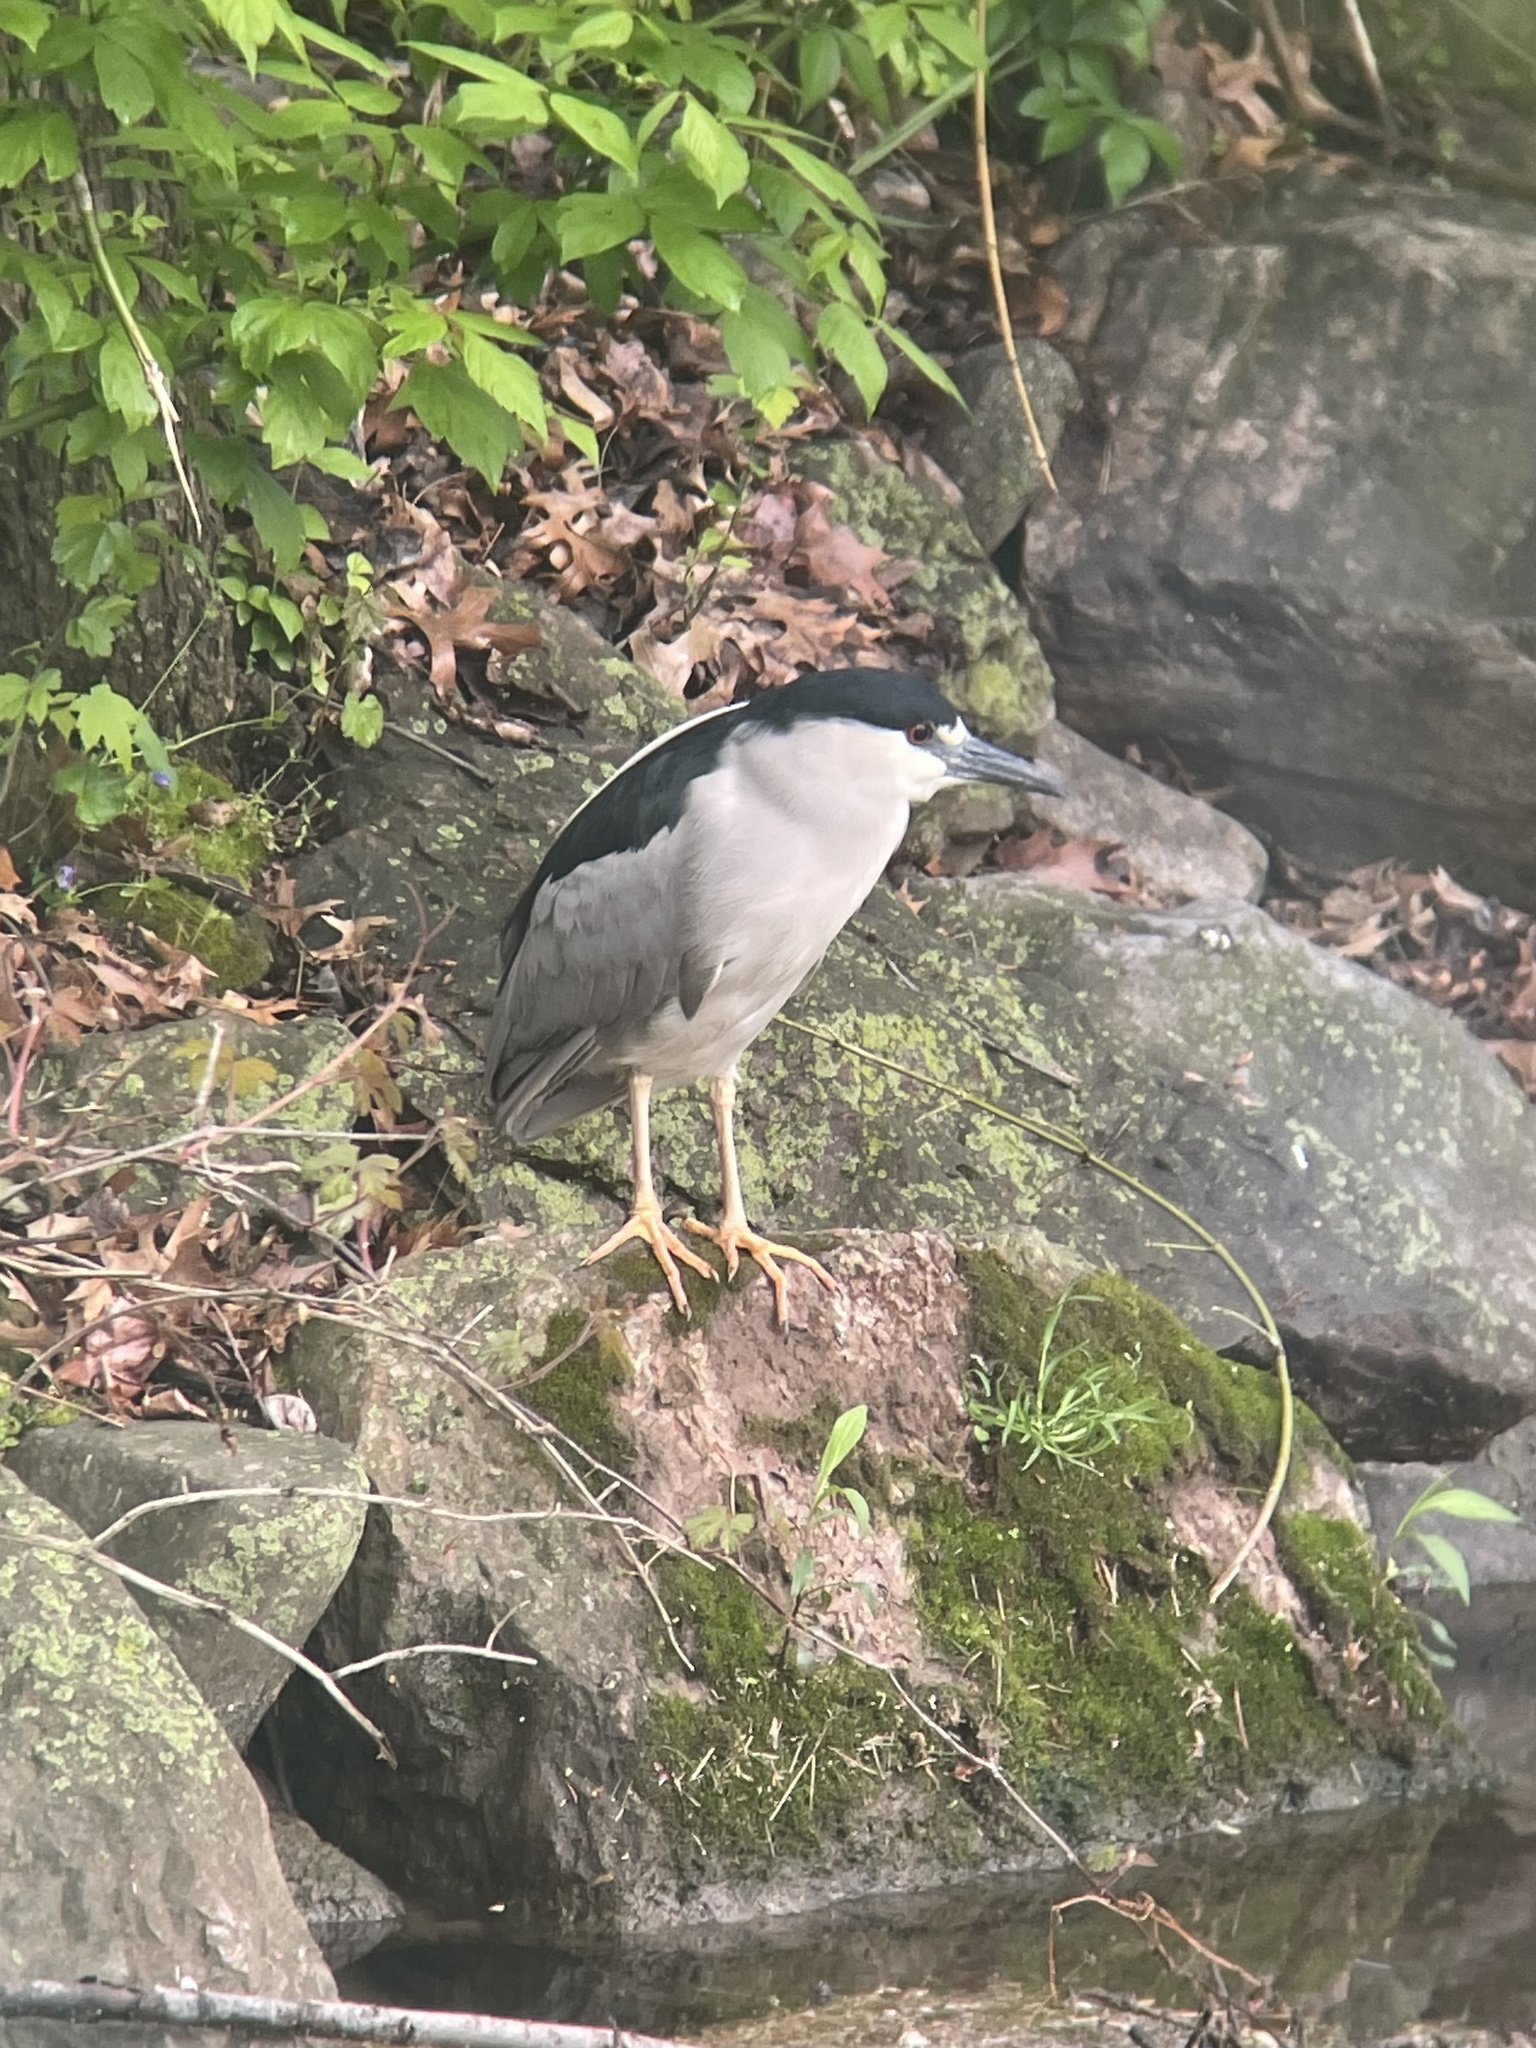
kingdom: Animalia
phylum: Chordata
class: Aves
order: Pelecaniformes
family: Ardeidae
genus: Nycticorax
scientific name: Nycticorax nycticorax
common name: Black-crowned night heron
